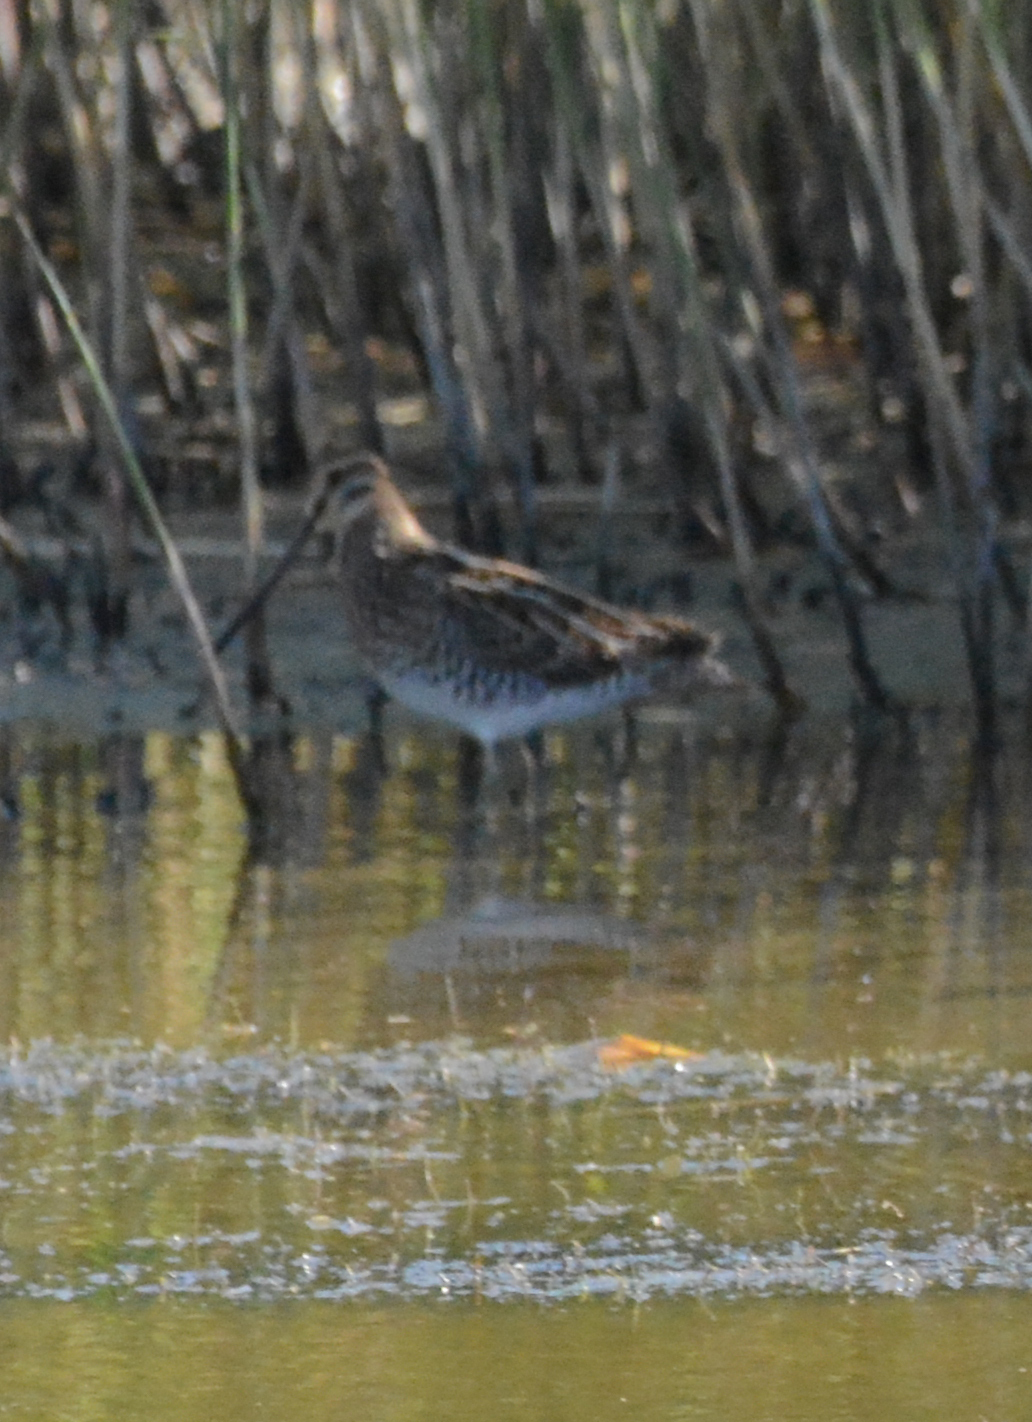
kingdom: Animalia
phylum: Chordata
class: Aves
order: Charadriiformes
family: Scolopacidae
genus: Gallinago
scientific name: Gallinago gallinago
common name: Common snipe
